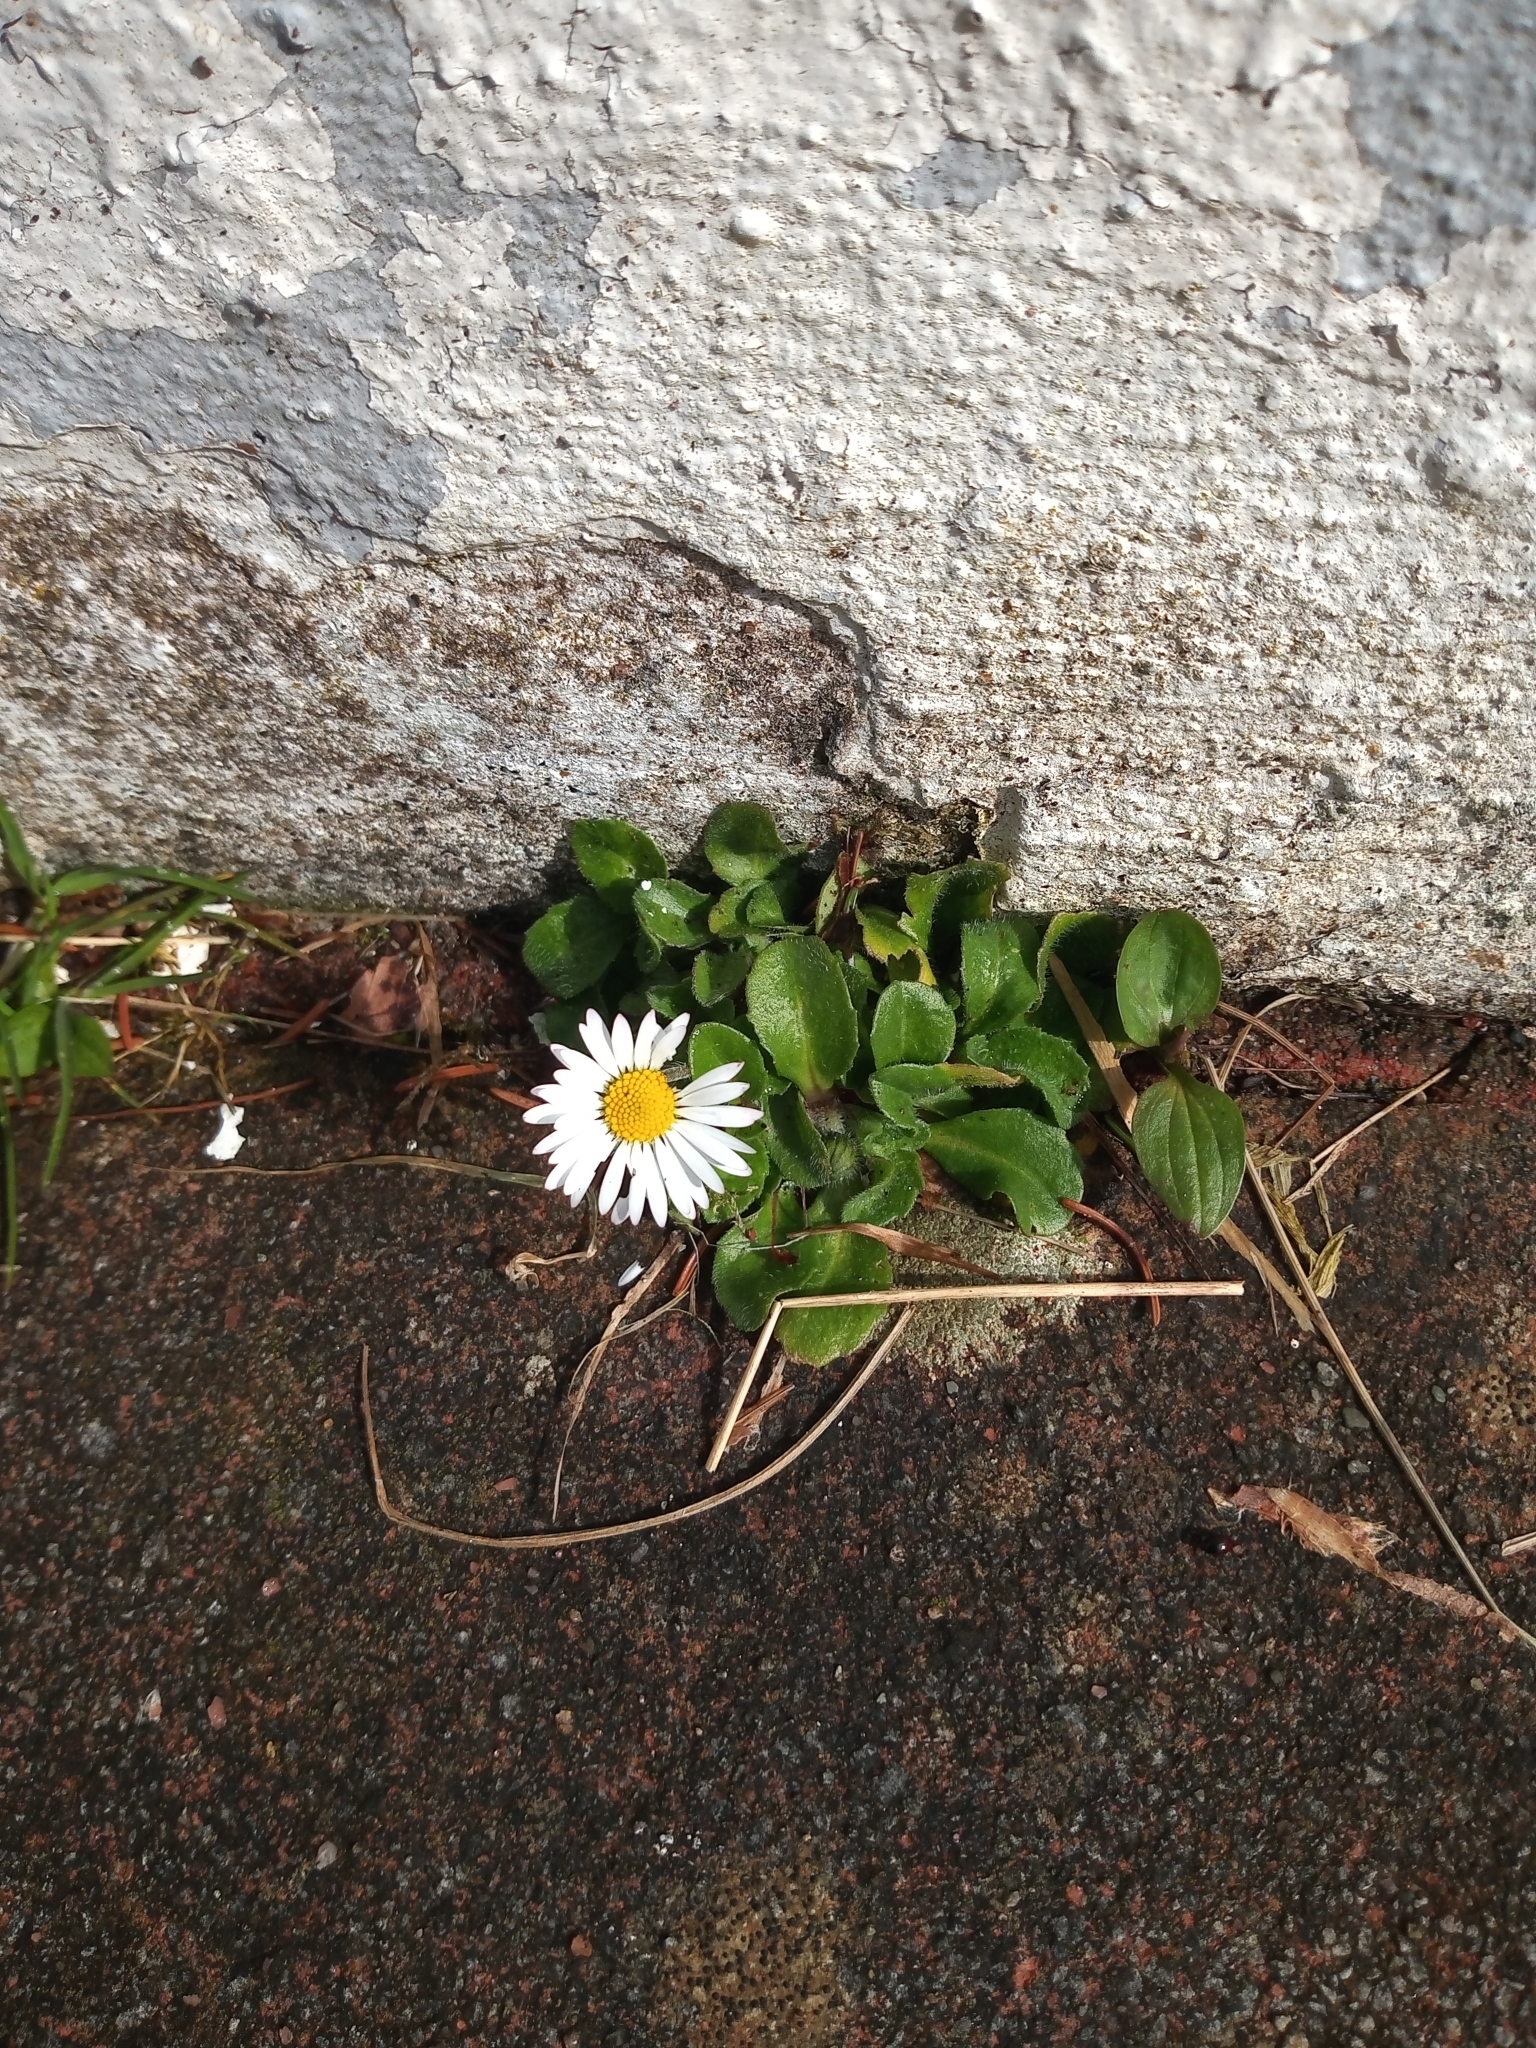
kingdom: Plantae
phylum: Tracheophyta
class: Magnoliopsida
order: Asterales
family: Asteraceae
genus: Bellis
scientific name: Bellis perennis
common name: Lawndaisy
